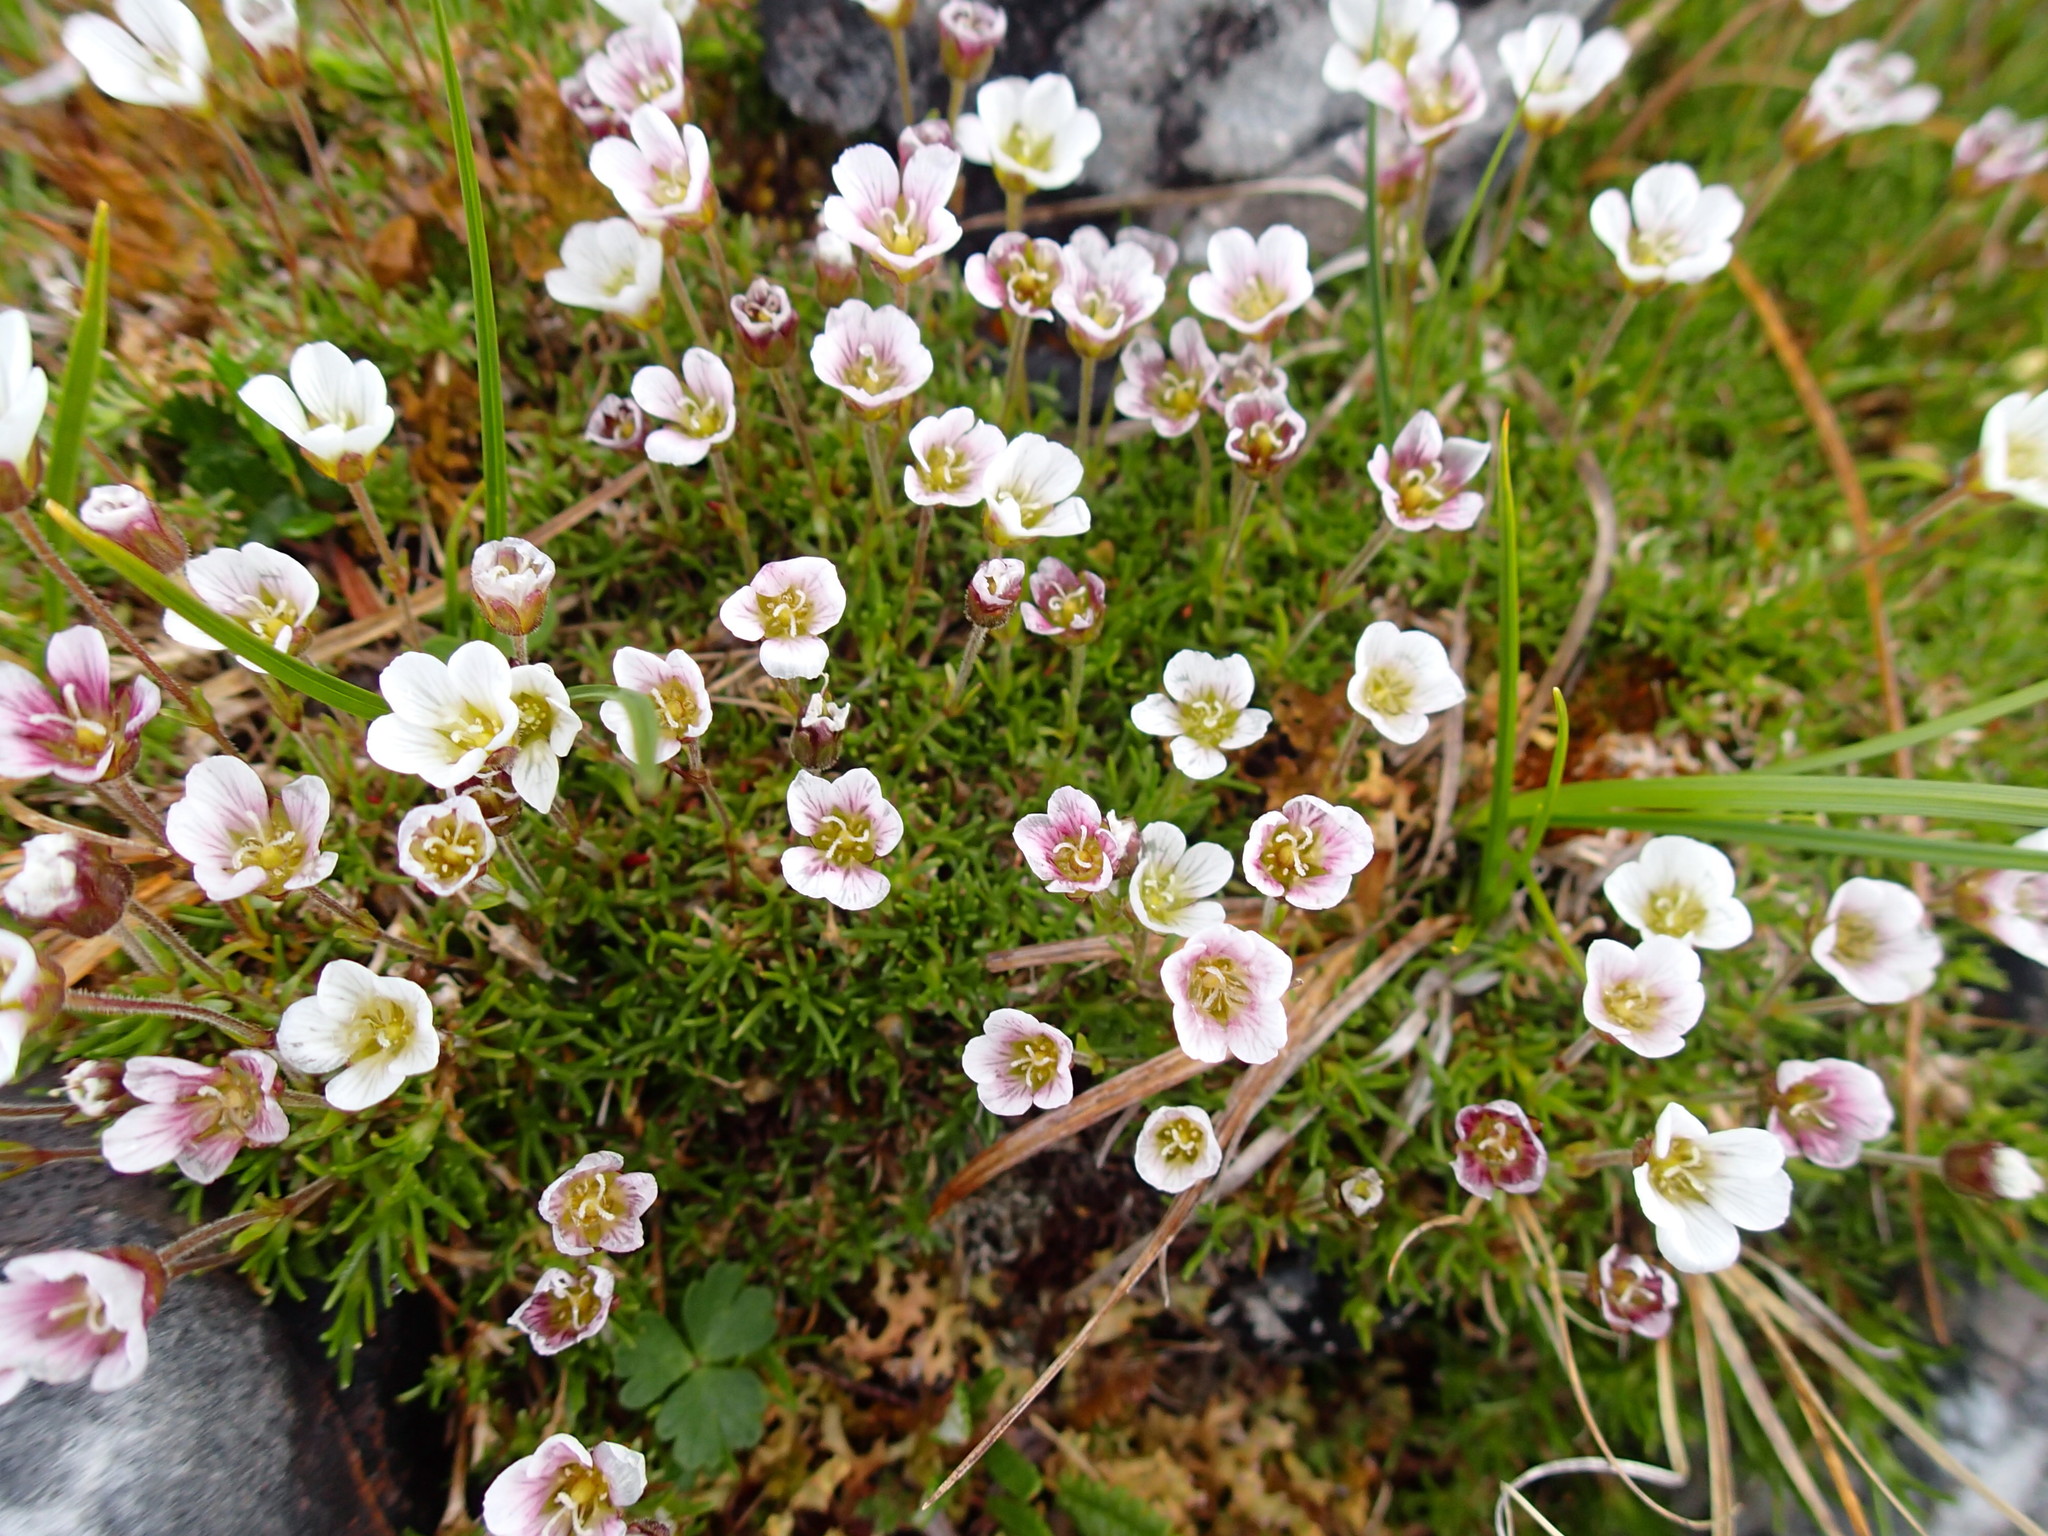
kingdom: Plantae
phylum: Tracheophyta
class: Magnoliopsida
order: Caryophyllales
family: Caryophyllaceae
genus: Cherleria
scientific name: Cherleria arctica
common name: Arctic sandwort
